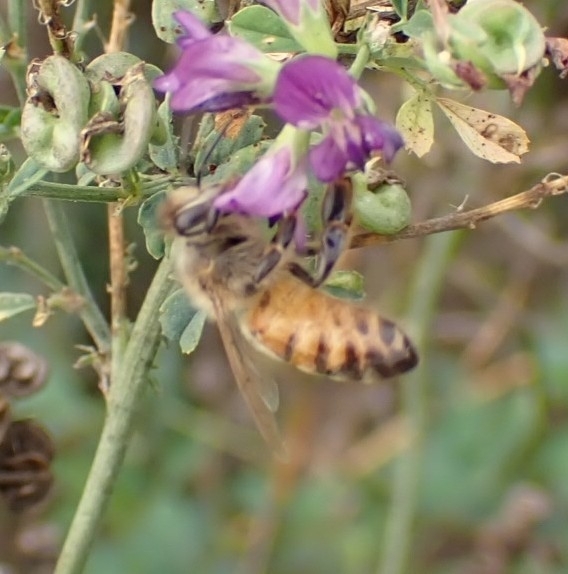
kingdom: Animalia
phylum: Arthropoda
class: Insecta
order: Hymenoptera
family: Apidae
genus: Apis
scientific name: Apis mellifera
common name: Honey bee
